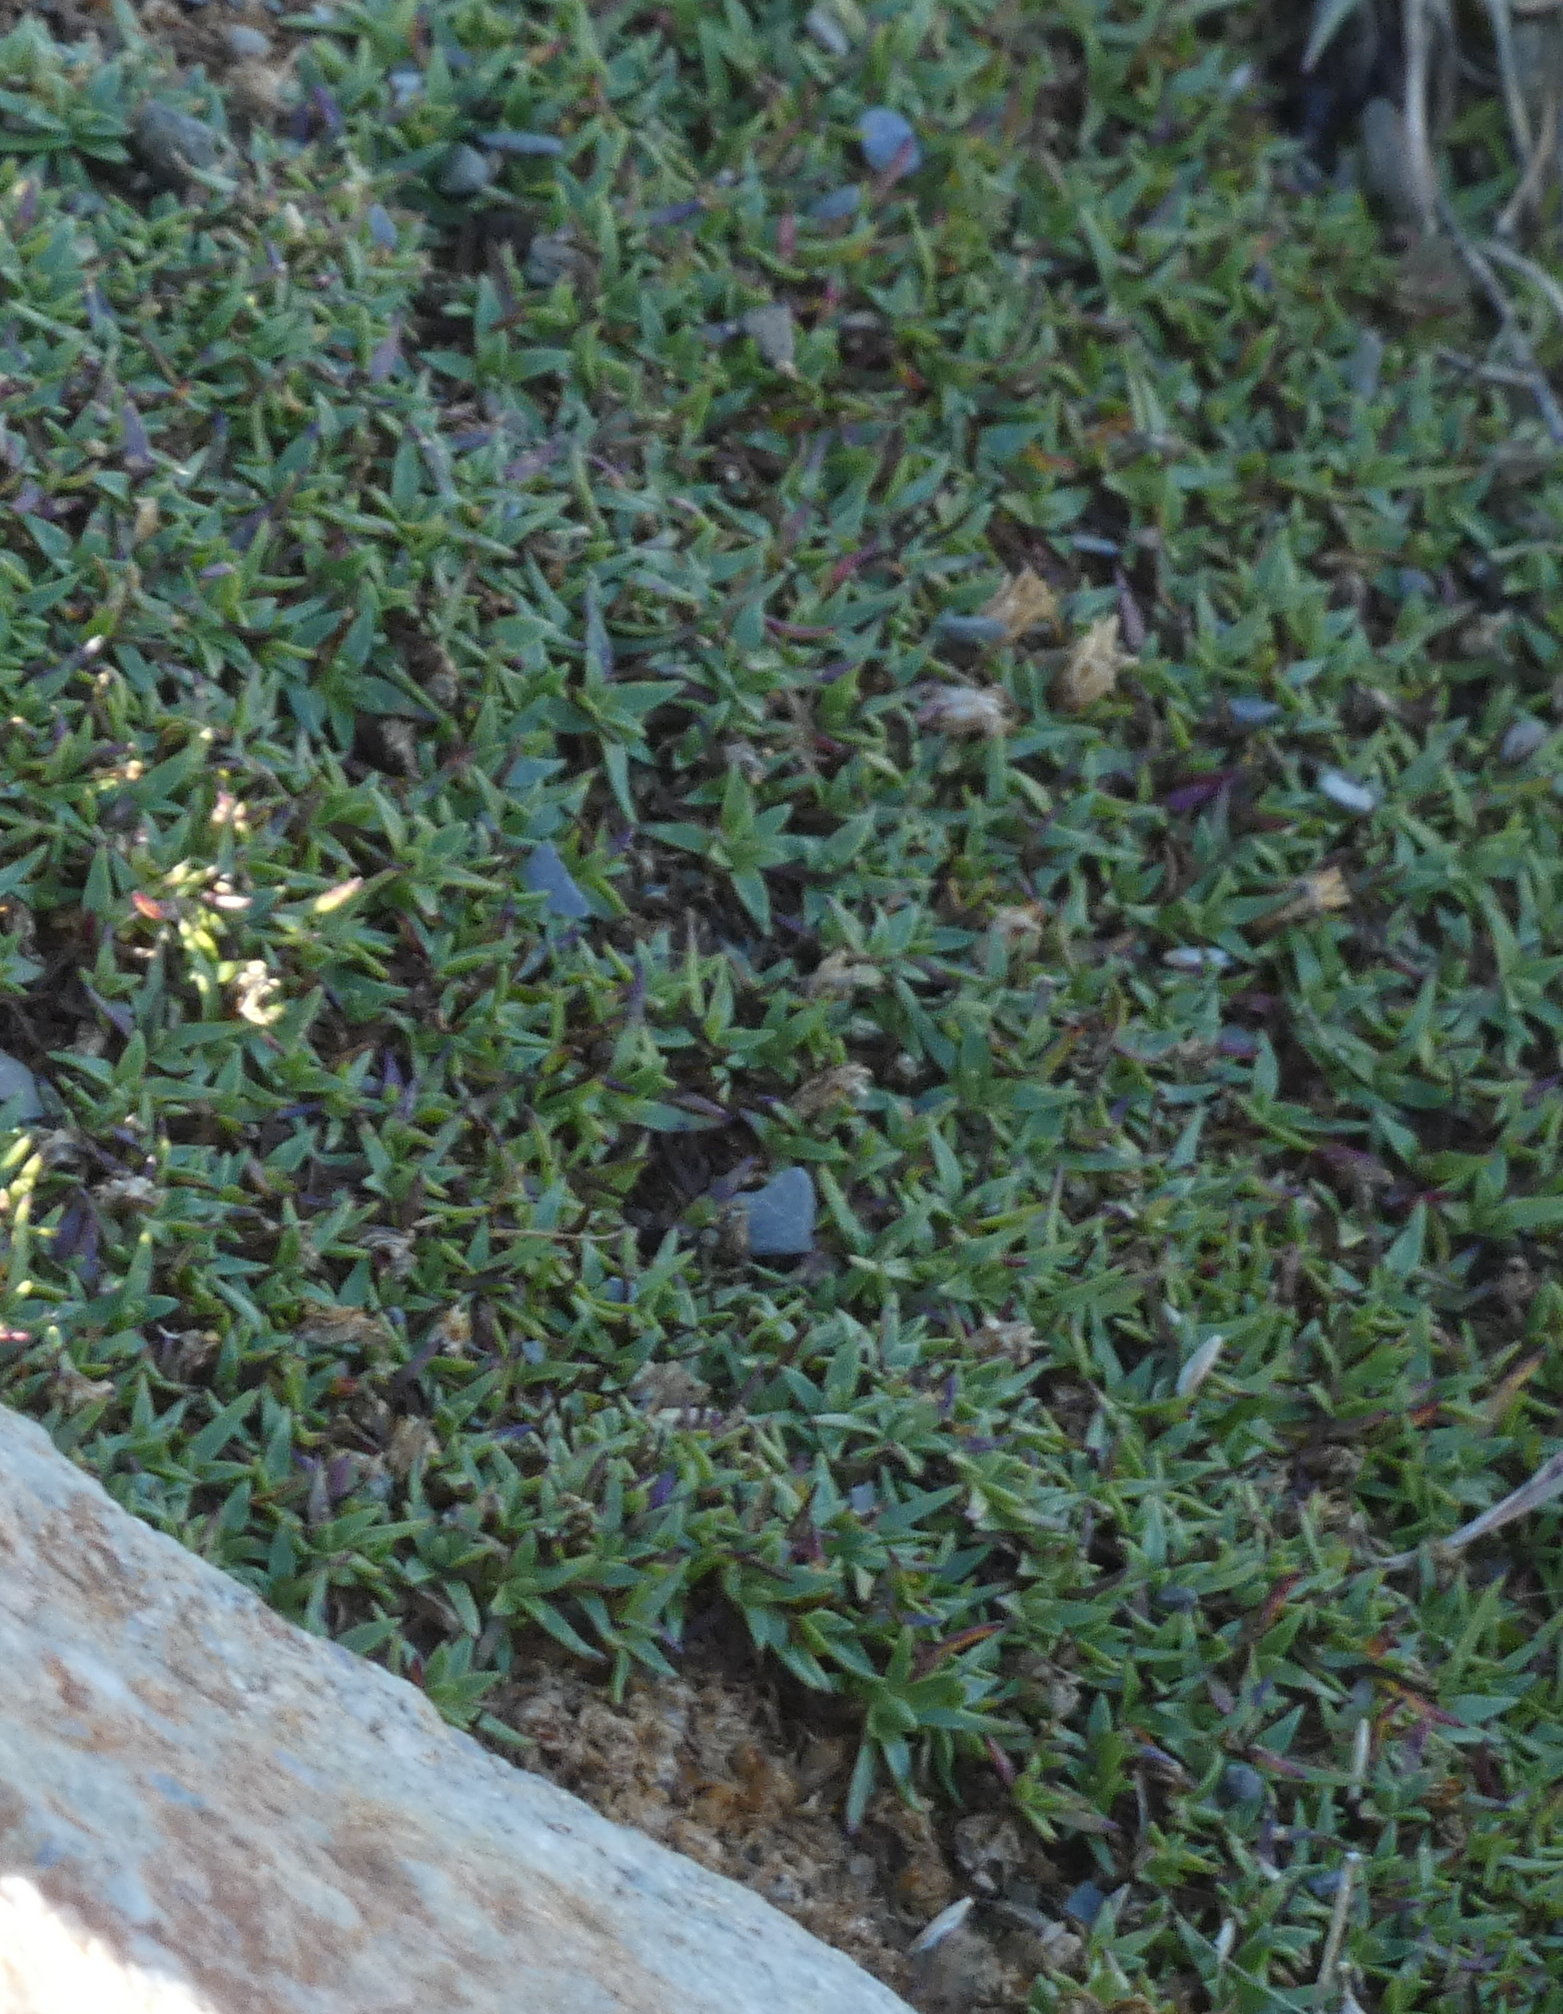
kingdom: Plantae
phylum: Tracheophyta
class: Magnoliopsida
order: Caryophyllales
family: Caryophyllaceae
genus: Silene
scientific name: Silene acaulis
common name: Moss campion
